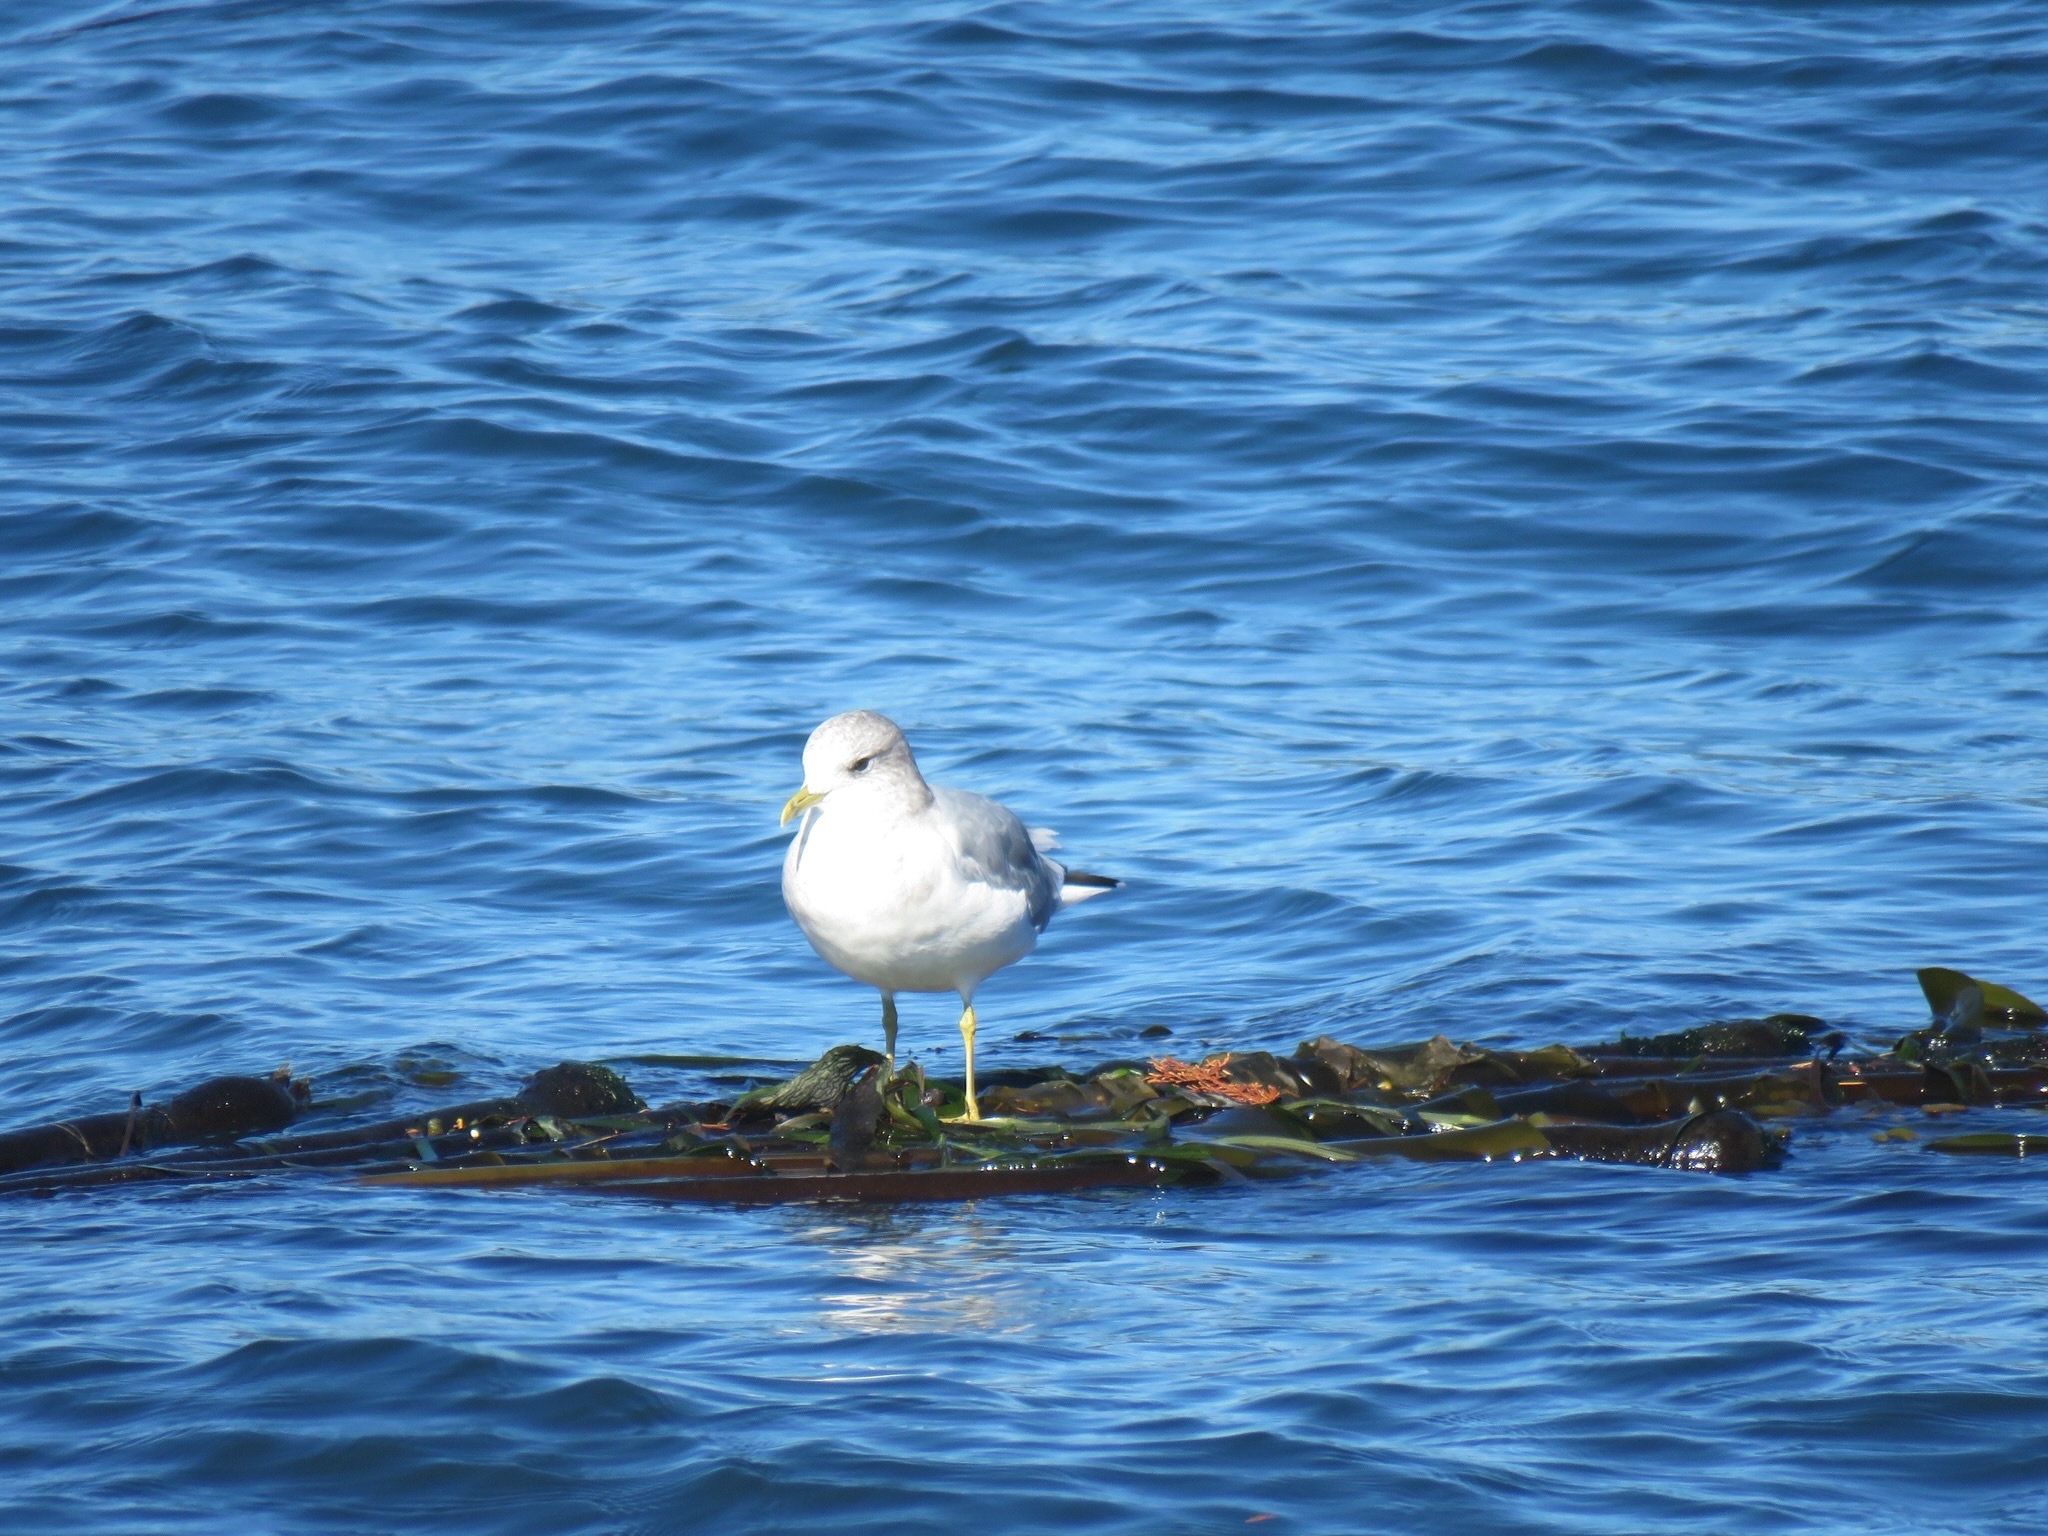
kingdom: Animalia
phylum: Chordata
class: Aves
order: Charadriiformes
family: Laridae
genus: Larus
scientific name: Larus brachyrhynchus
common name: Short-billed gull
